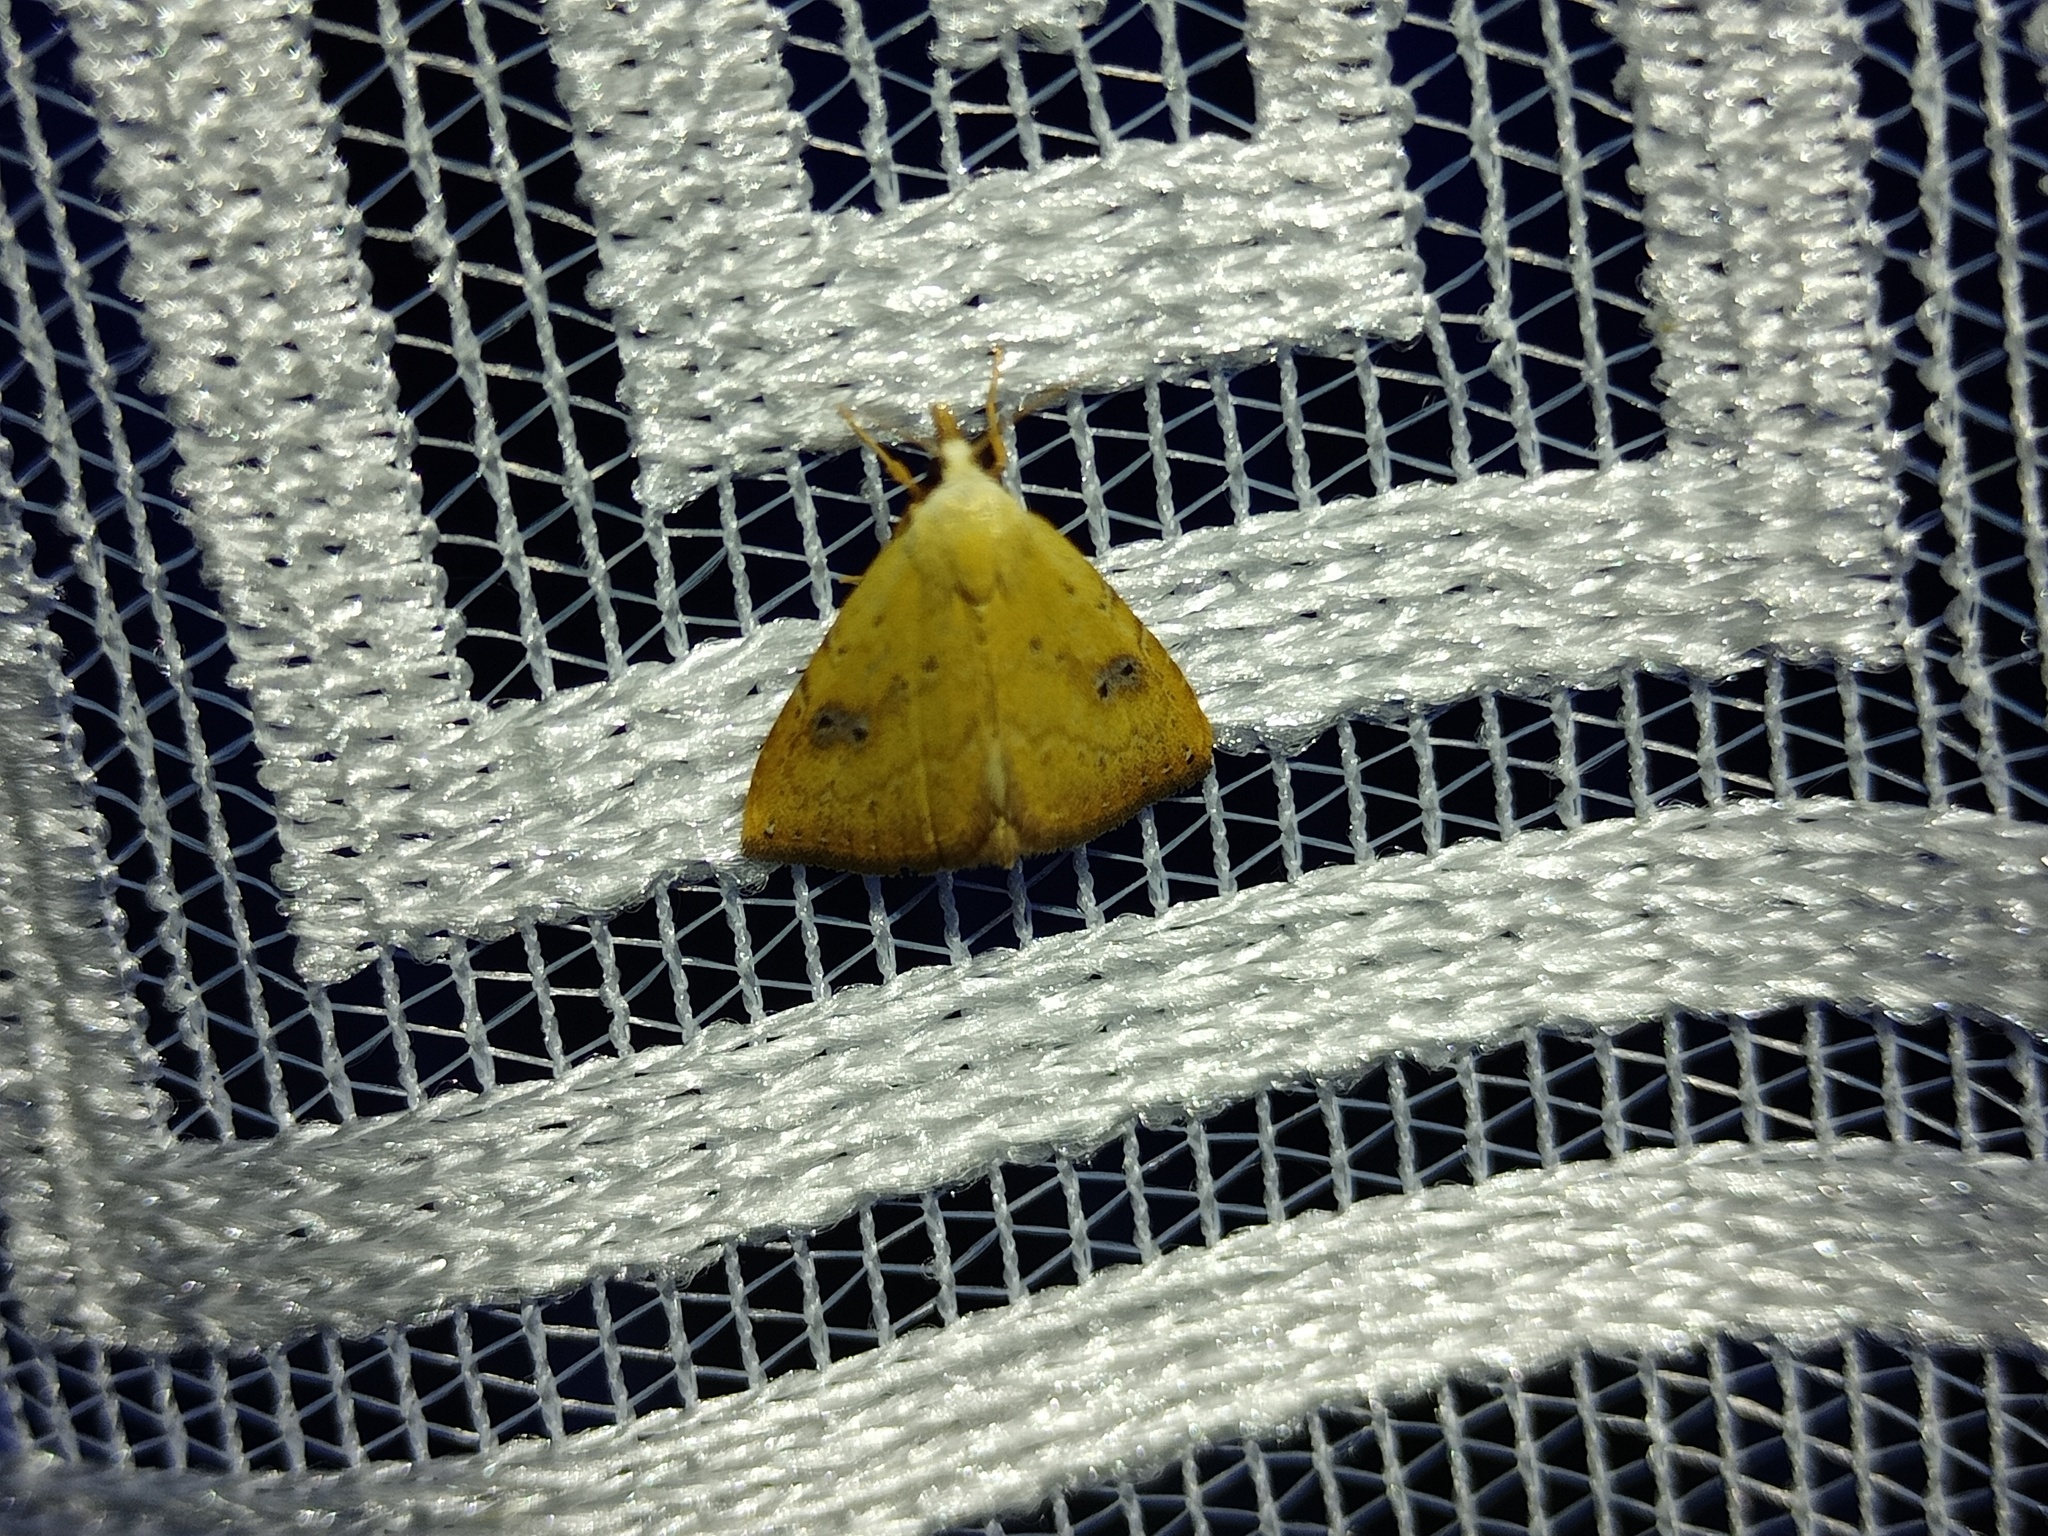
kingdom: Animalia
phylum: Arthropoda
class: Insecta
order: Lepidoptera
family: Erebidae
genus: Rivula
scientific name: Rivula sericealis
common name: Straw dot
